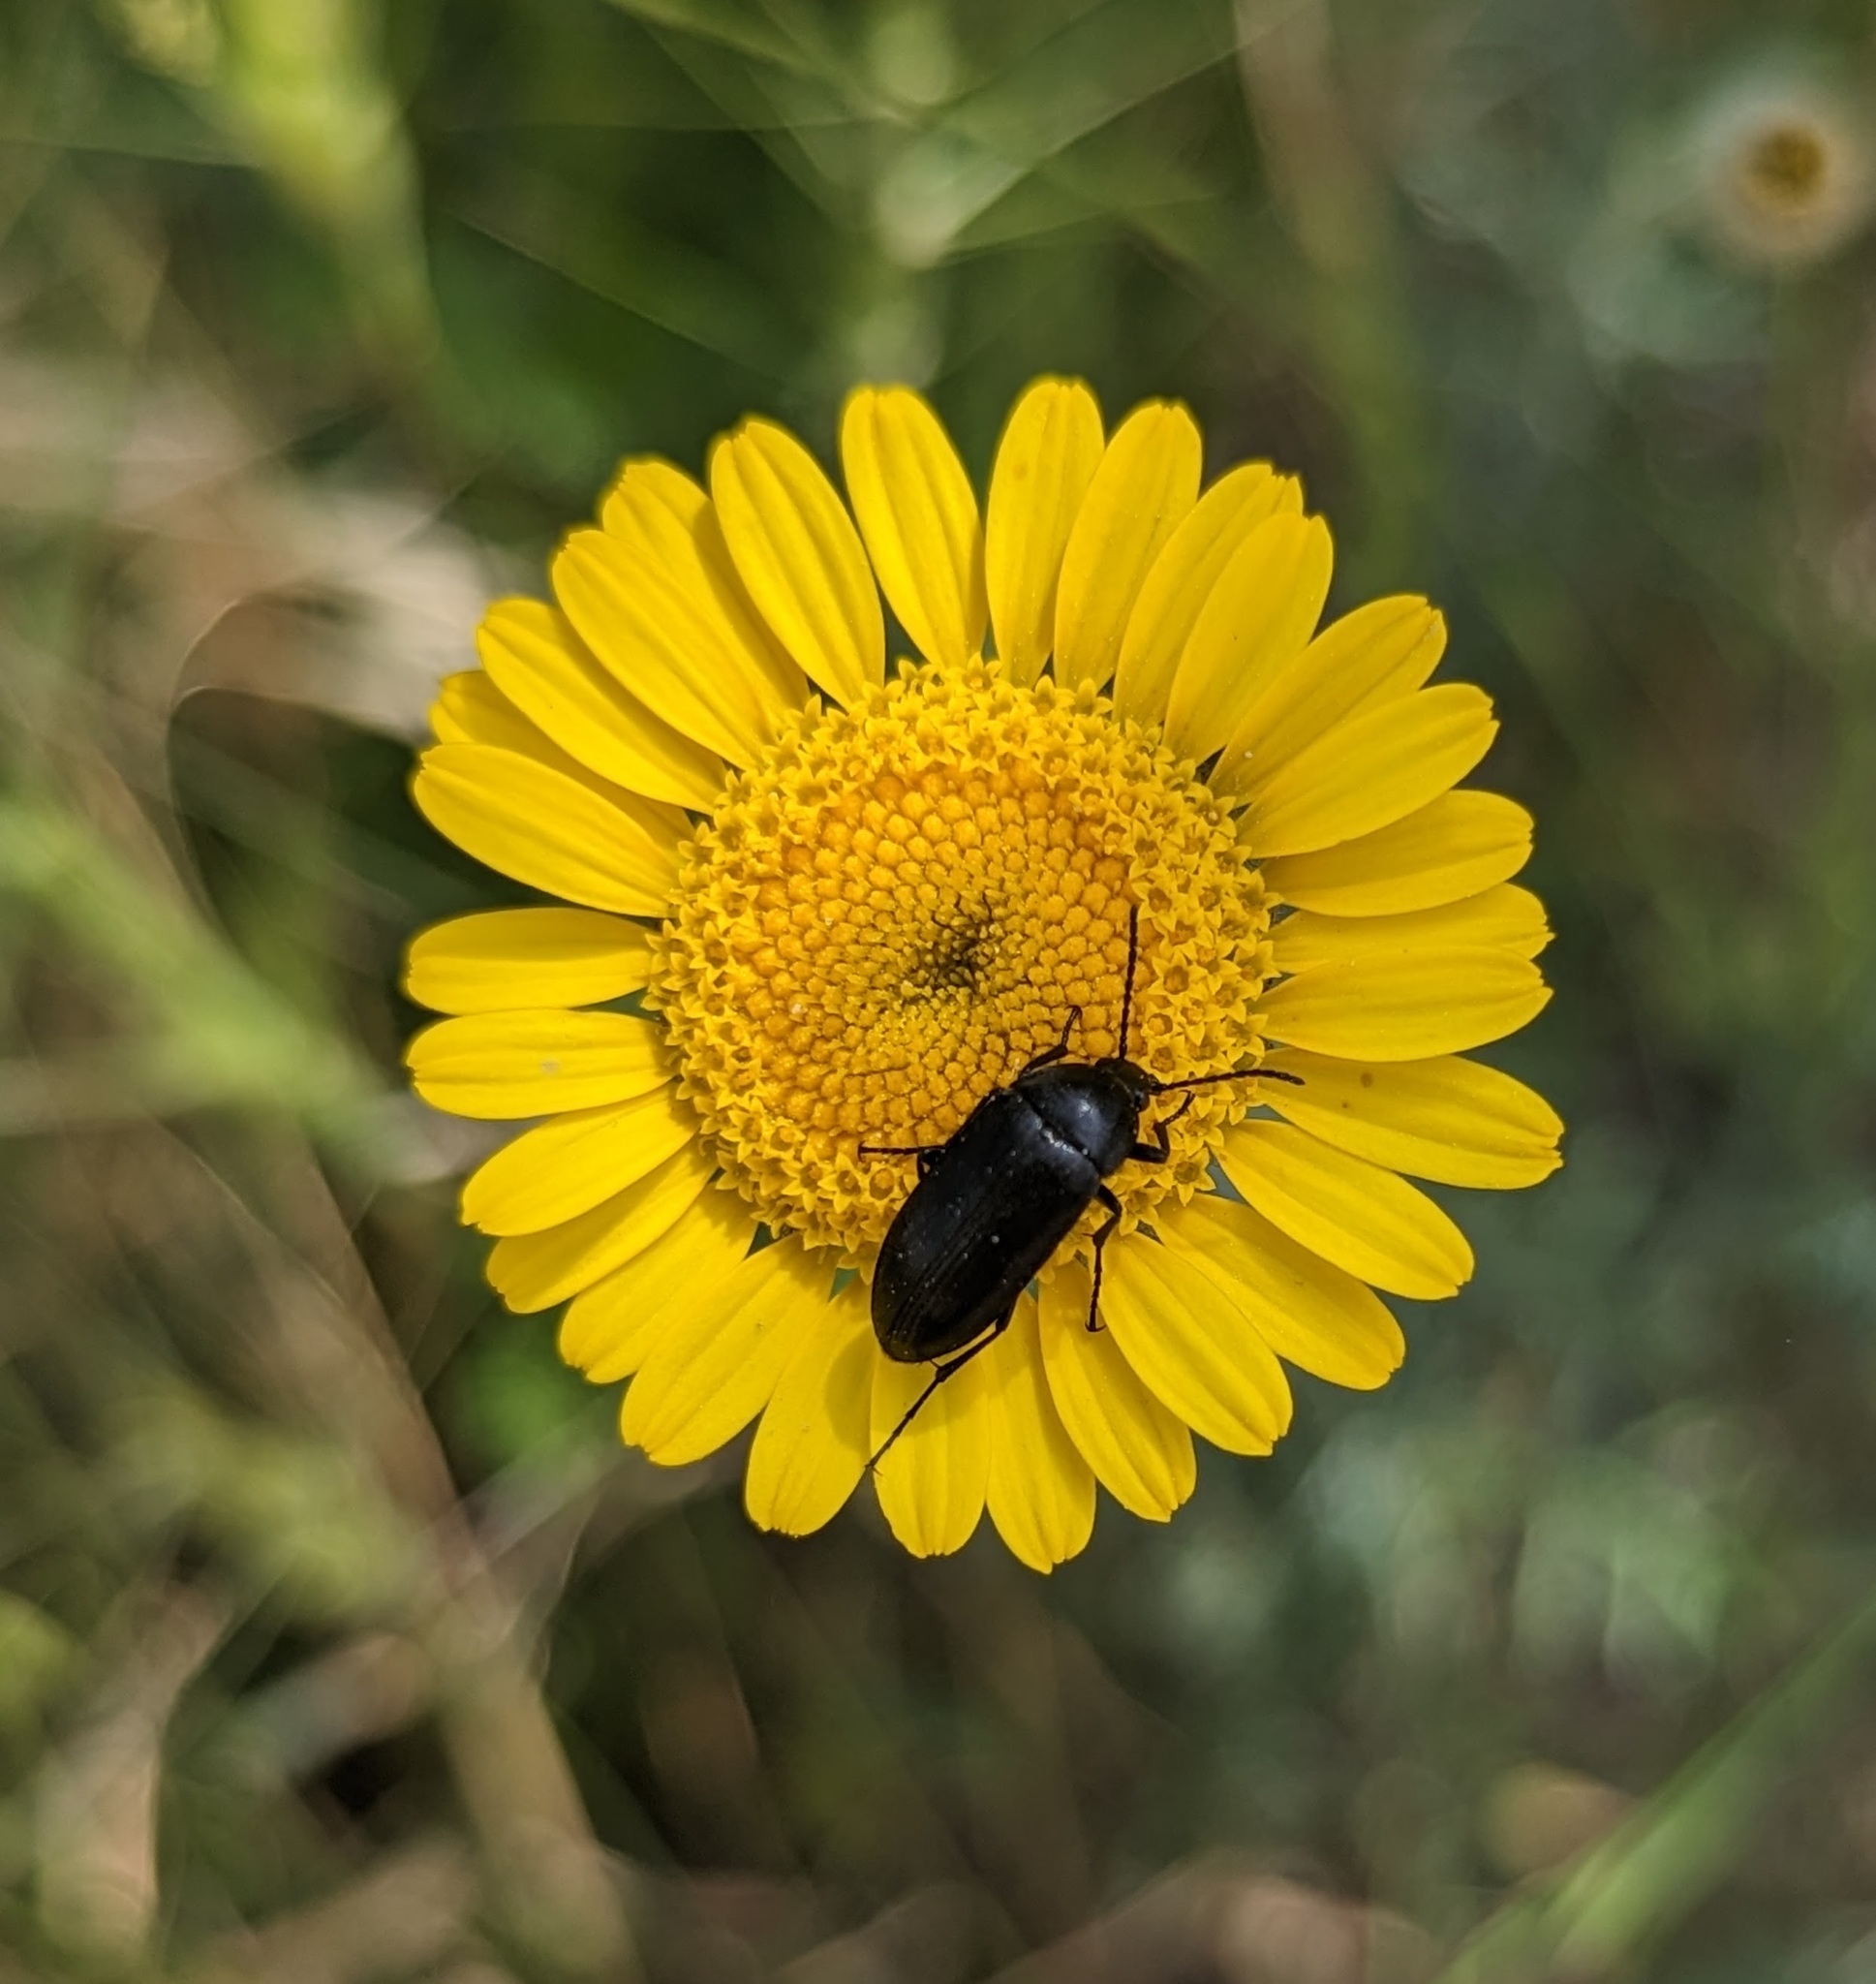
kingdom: Plantae
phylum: Tracheophyta
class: Magnoliopsida
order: Asterales
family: Asteraceae
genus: Cota
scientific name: Cota tinctoria
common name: Golden chamomile
